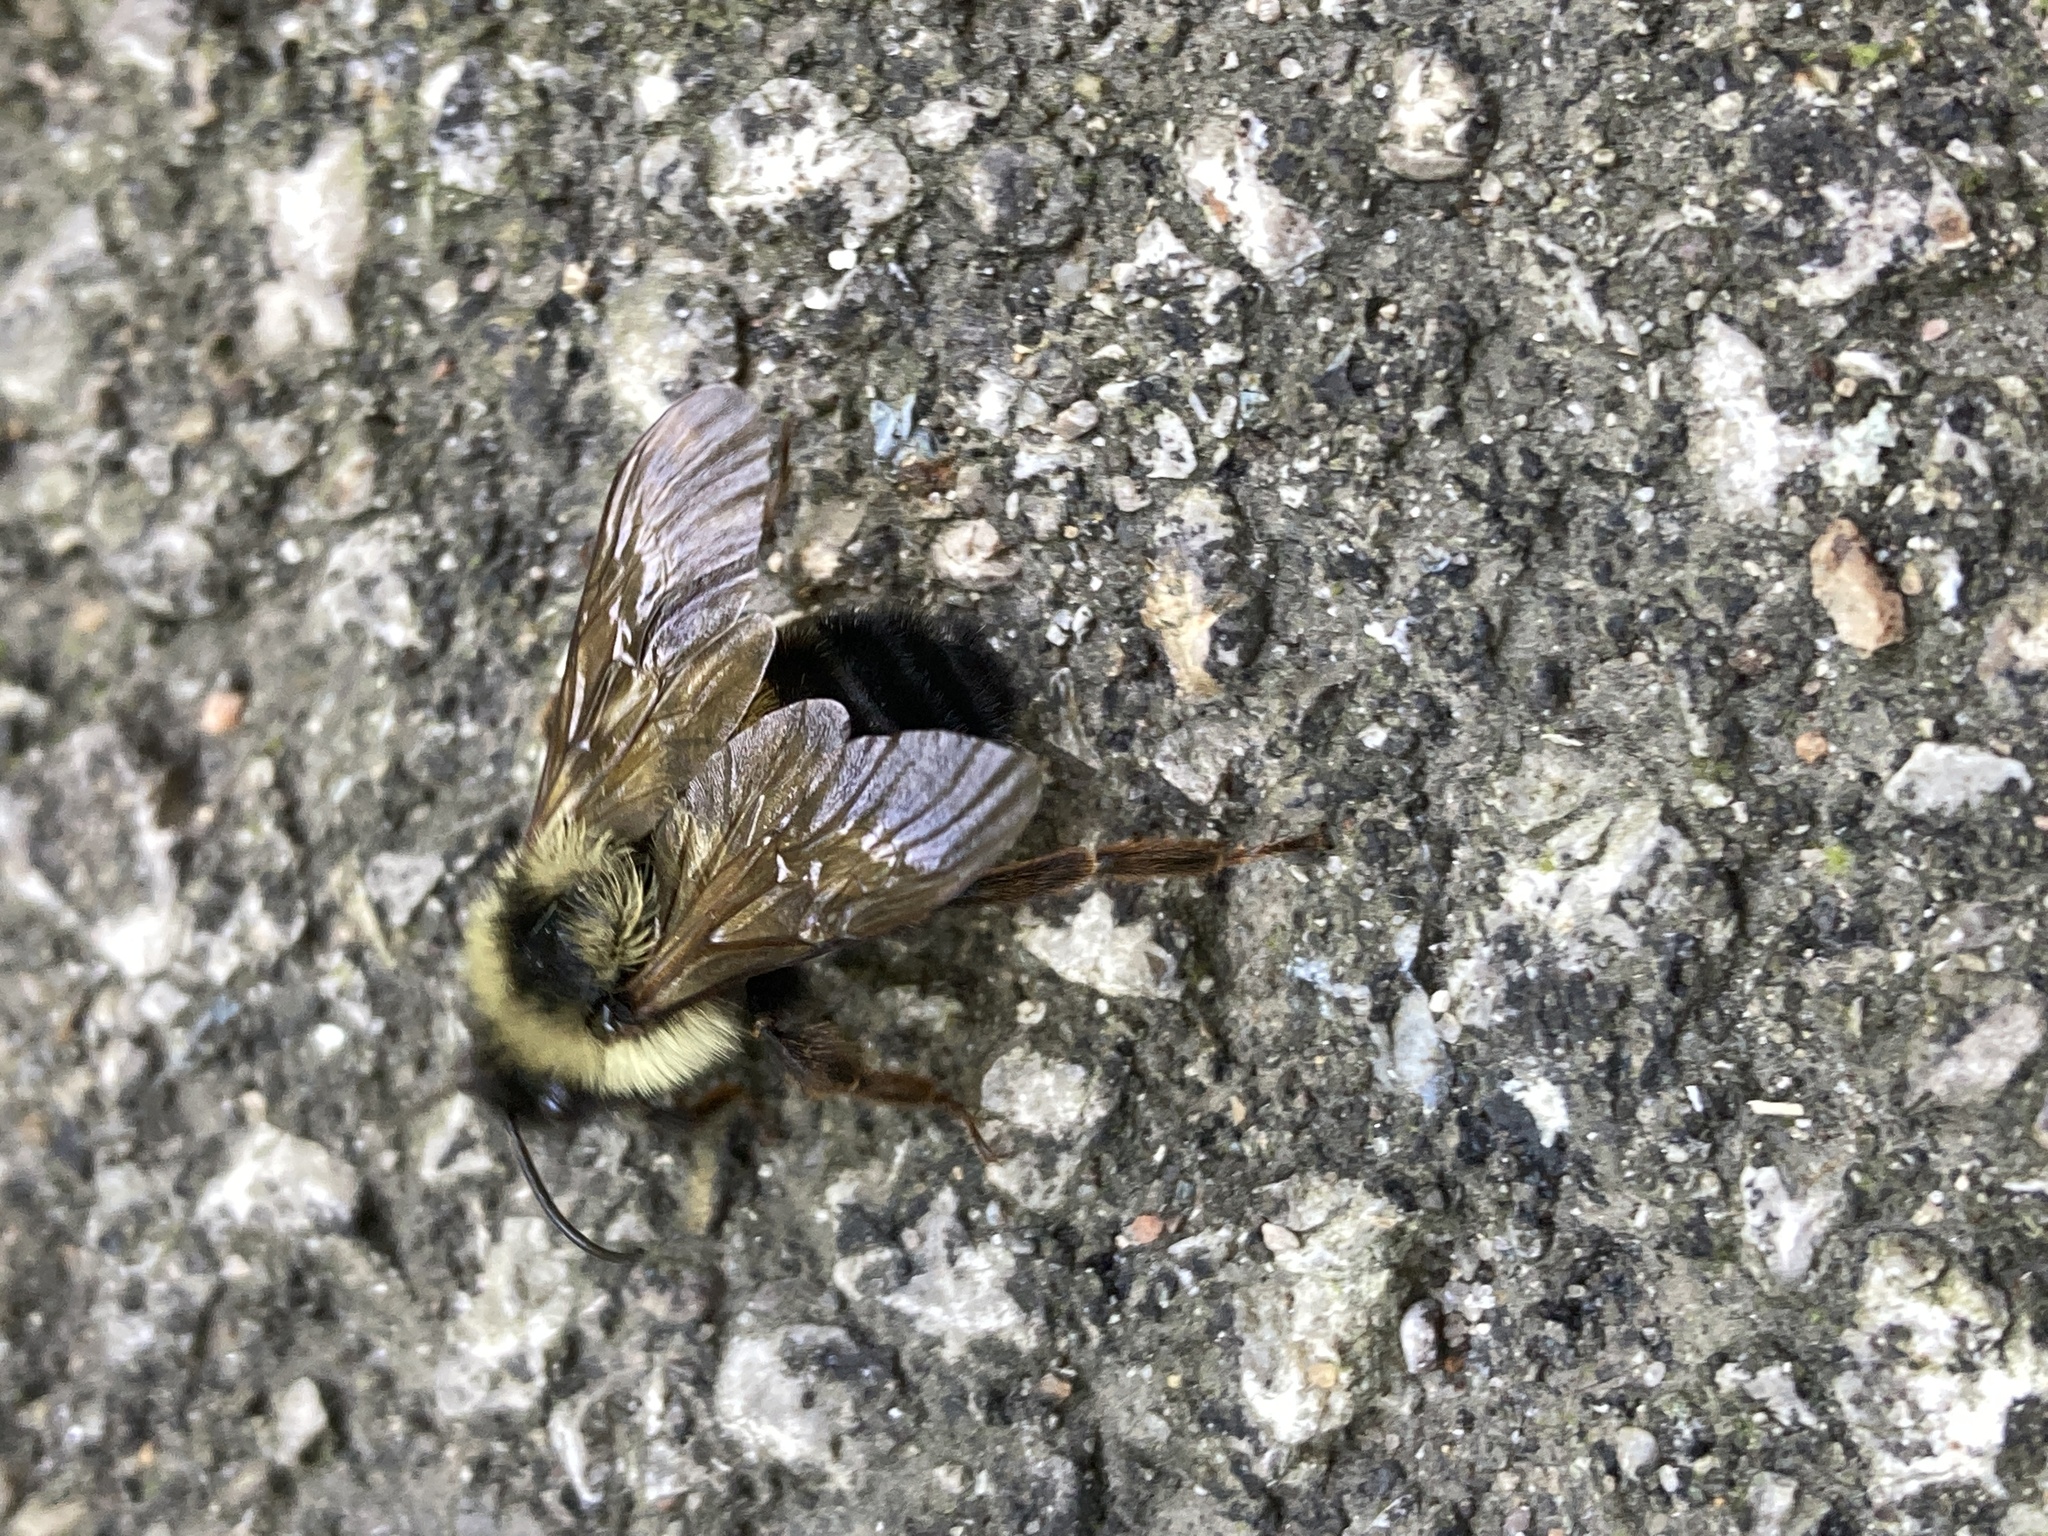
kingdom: Animalia
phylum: Arthropoda
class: Insecta
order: Hymenoptera
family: Apidae
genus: Bombus
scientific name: Bombus citrinus
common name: Lemon cuckoo bumble bee
